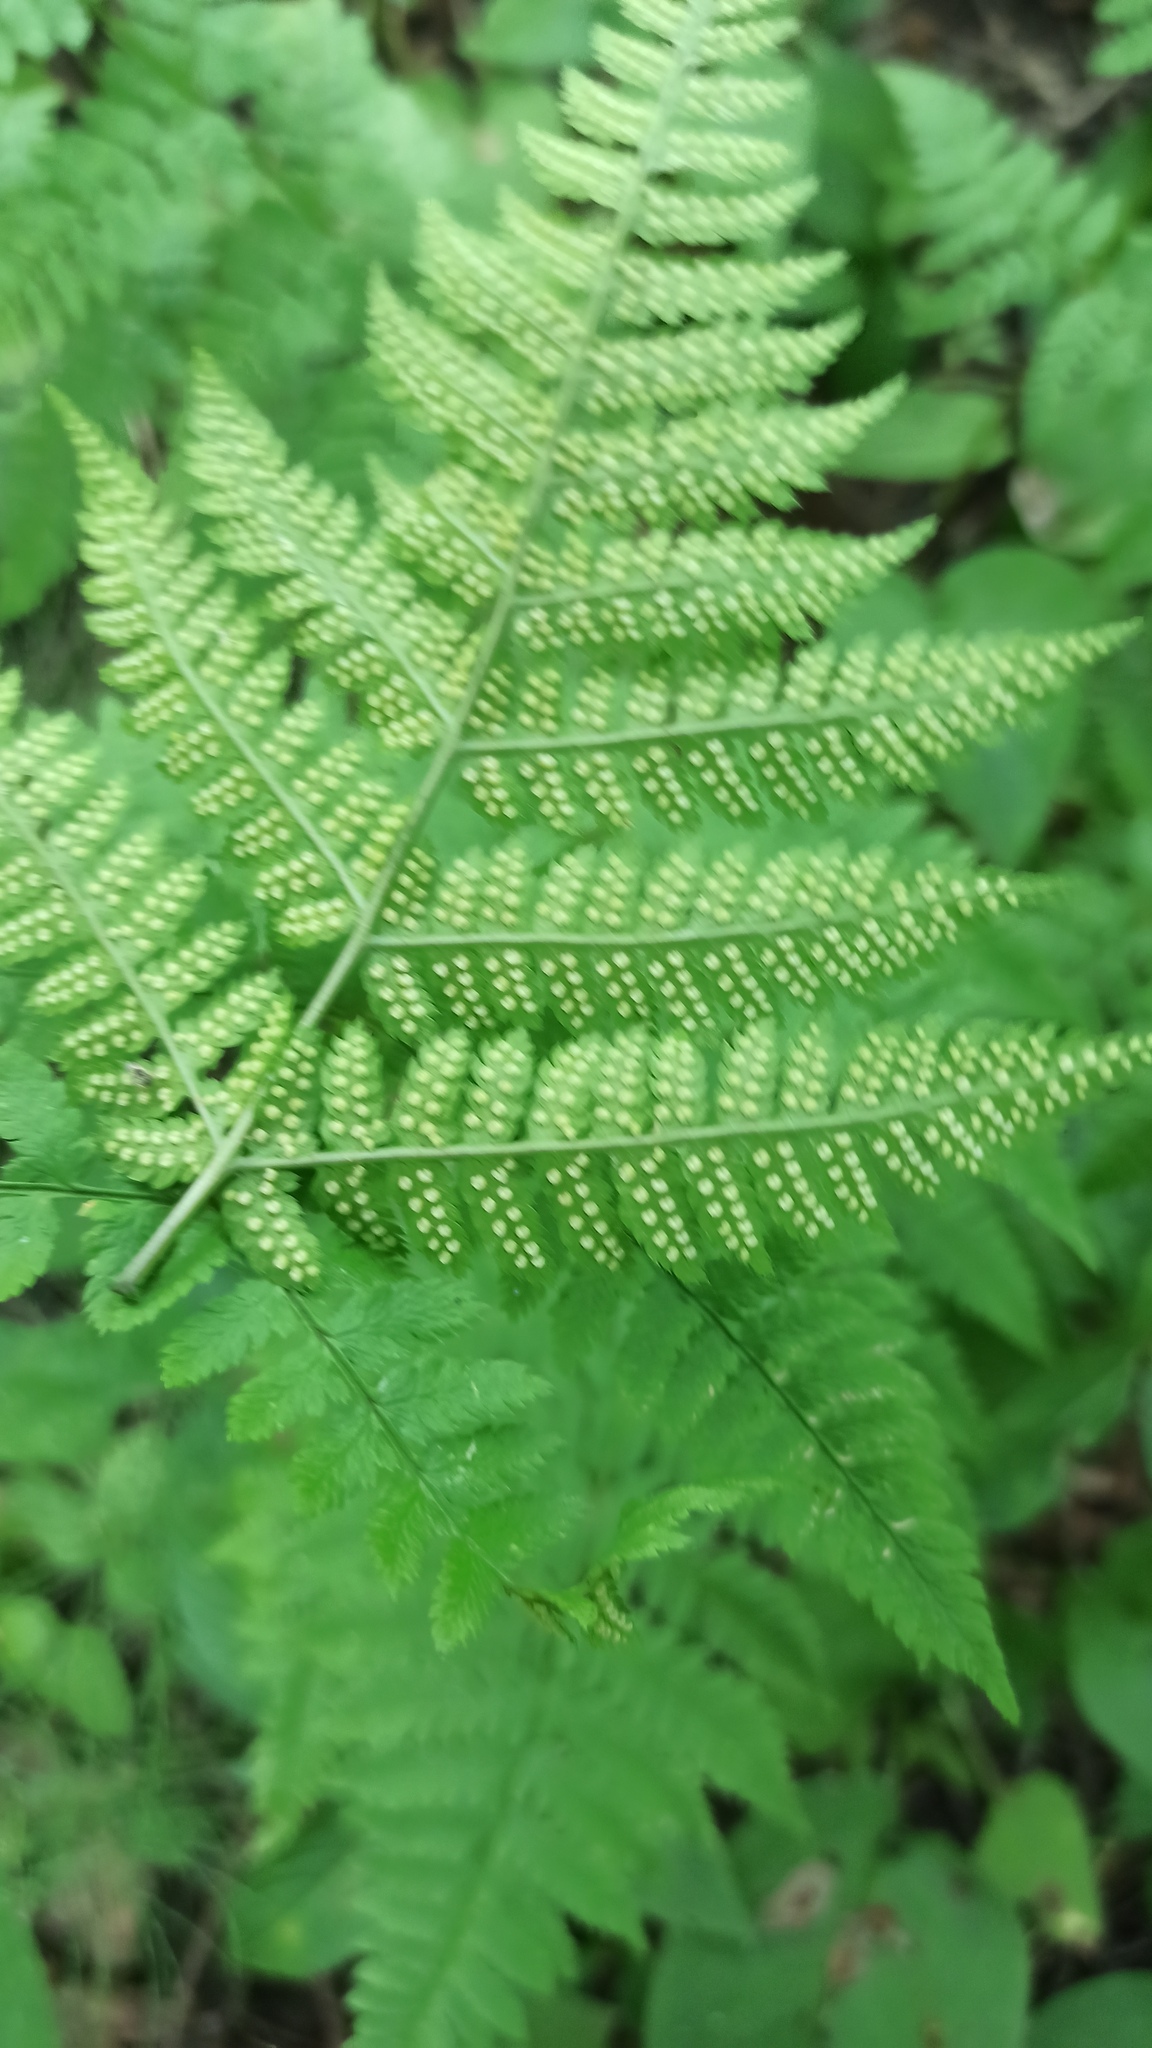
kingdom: Plantae
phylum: Tracheophyta
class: Polypodiopsida
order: Polypodiales
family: Dryopteridaceae
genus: Dryopteris
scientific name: Dryopteris carthusiana
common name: Narrow buckler-fern
